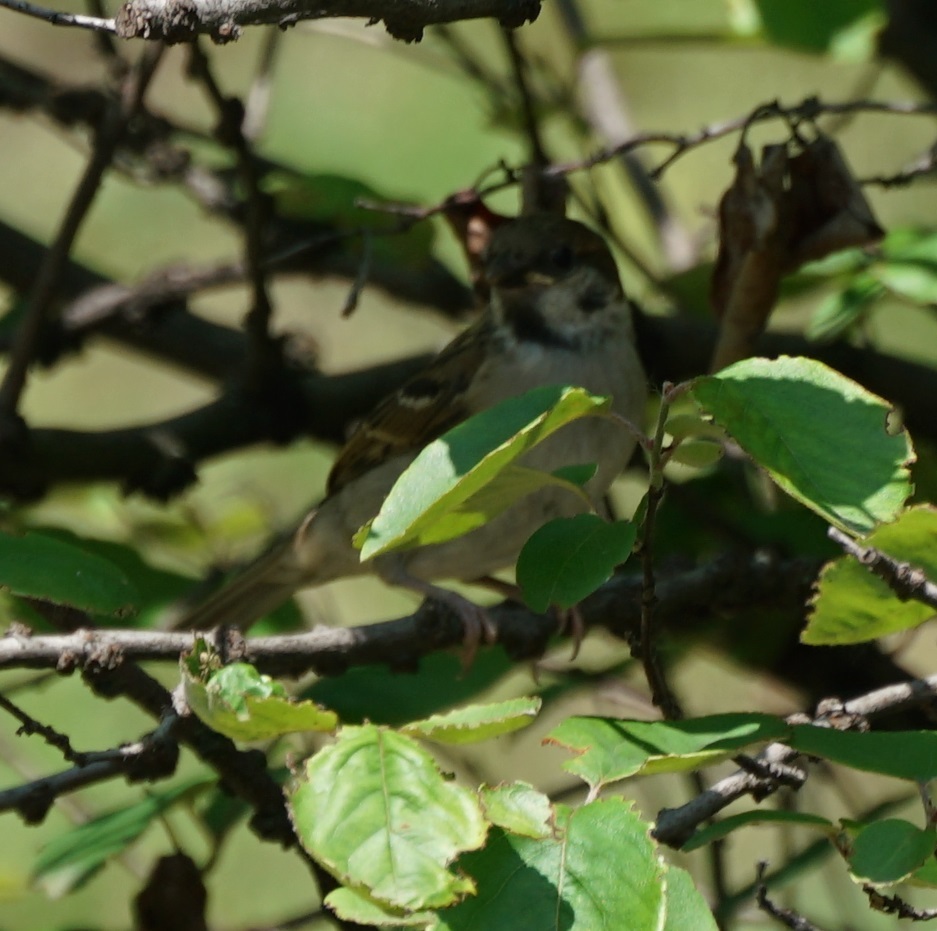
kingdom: Animalia
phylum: Chordata
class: Aves
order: Passeriformes
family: Passeridae
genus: Passer
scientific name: Passer montanus
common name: Eurasian tree sparrow
